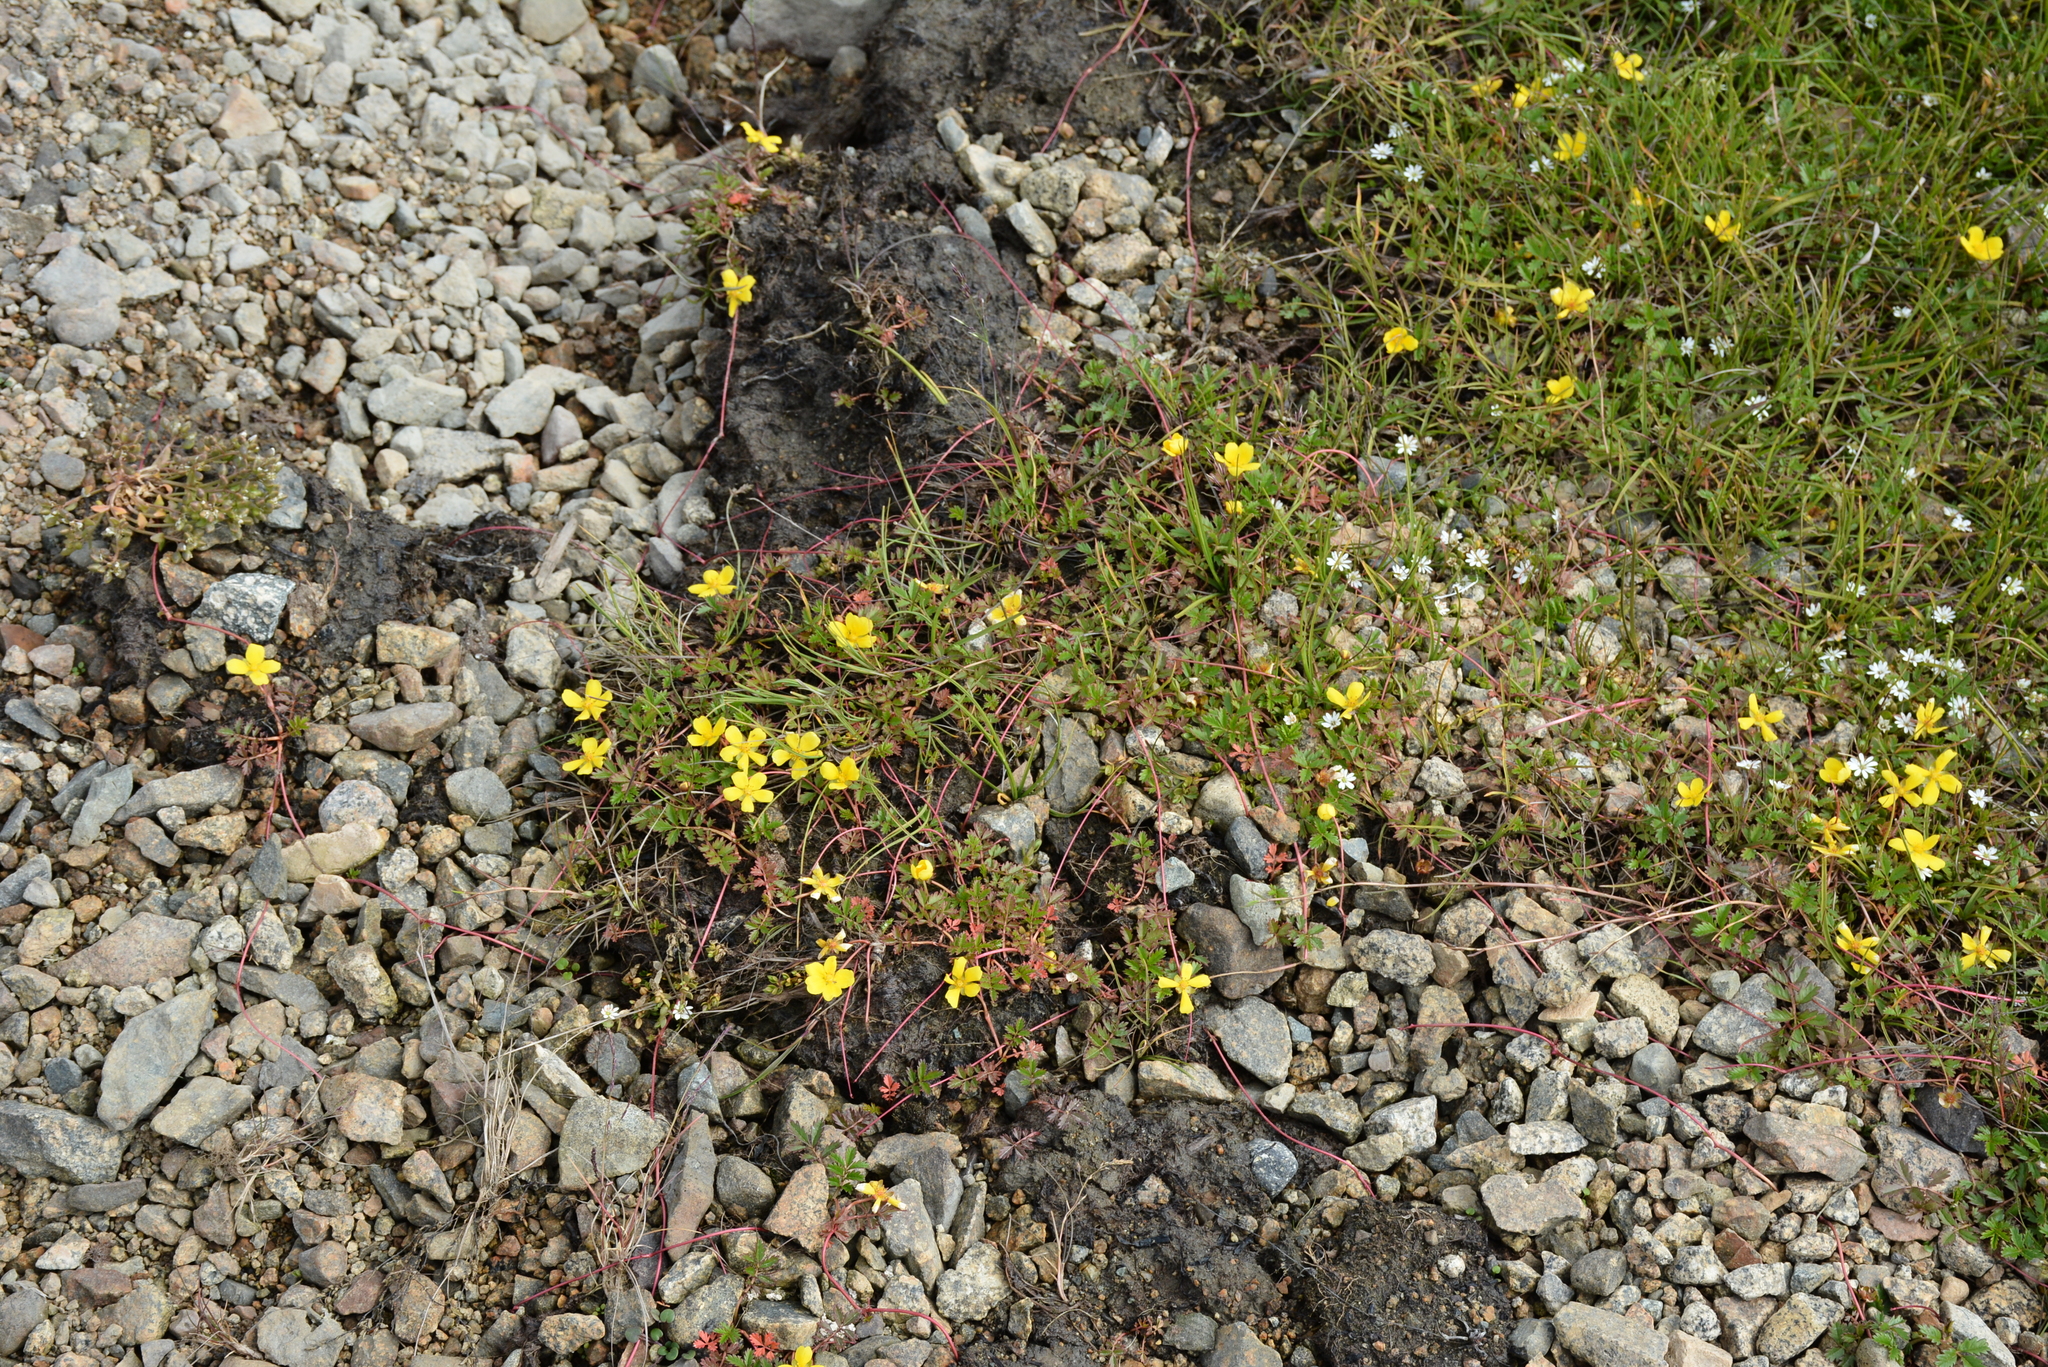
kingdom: Plantae
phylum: Tracheophyta
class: Magnoliopsida
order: Rosales
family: Rosaceae
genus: Argentina
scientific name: Argentina subarctica
